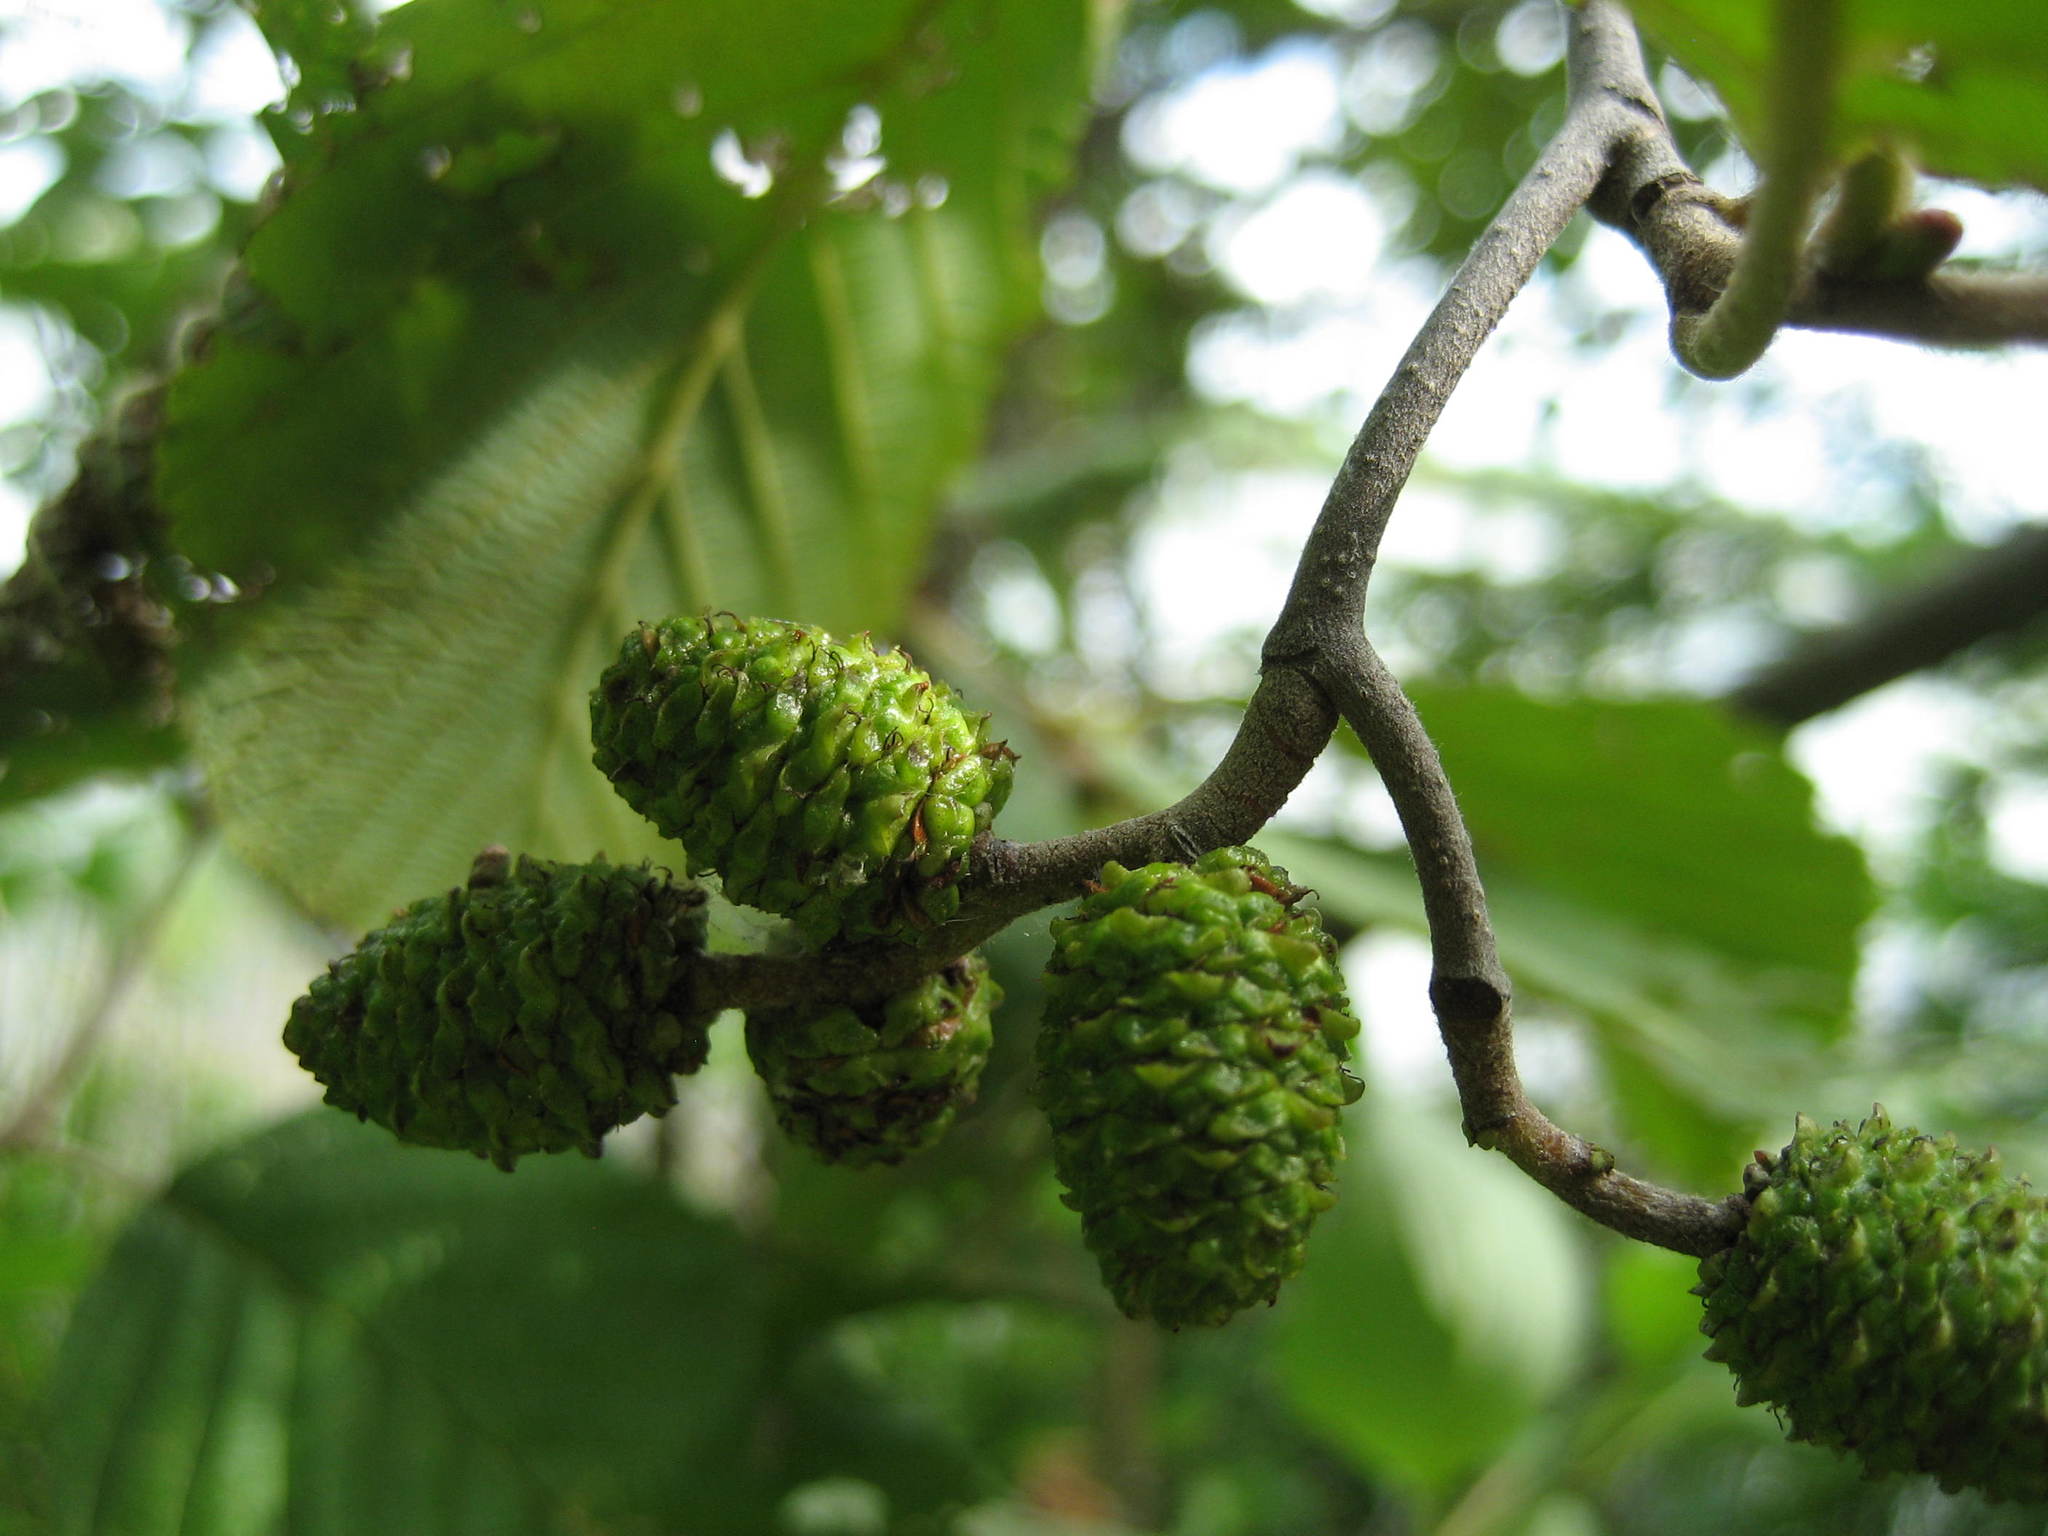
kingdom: Plantae
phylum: Tracheophyta
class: Magnoliopsida
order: Fagales
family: Betulaceae
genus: Alnus
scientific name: Alnus incana
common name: Grey alder
